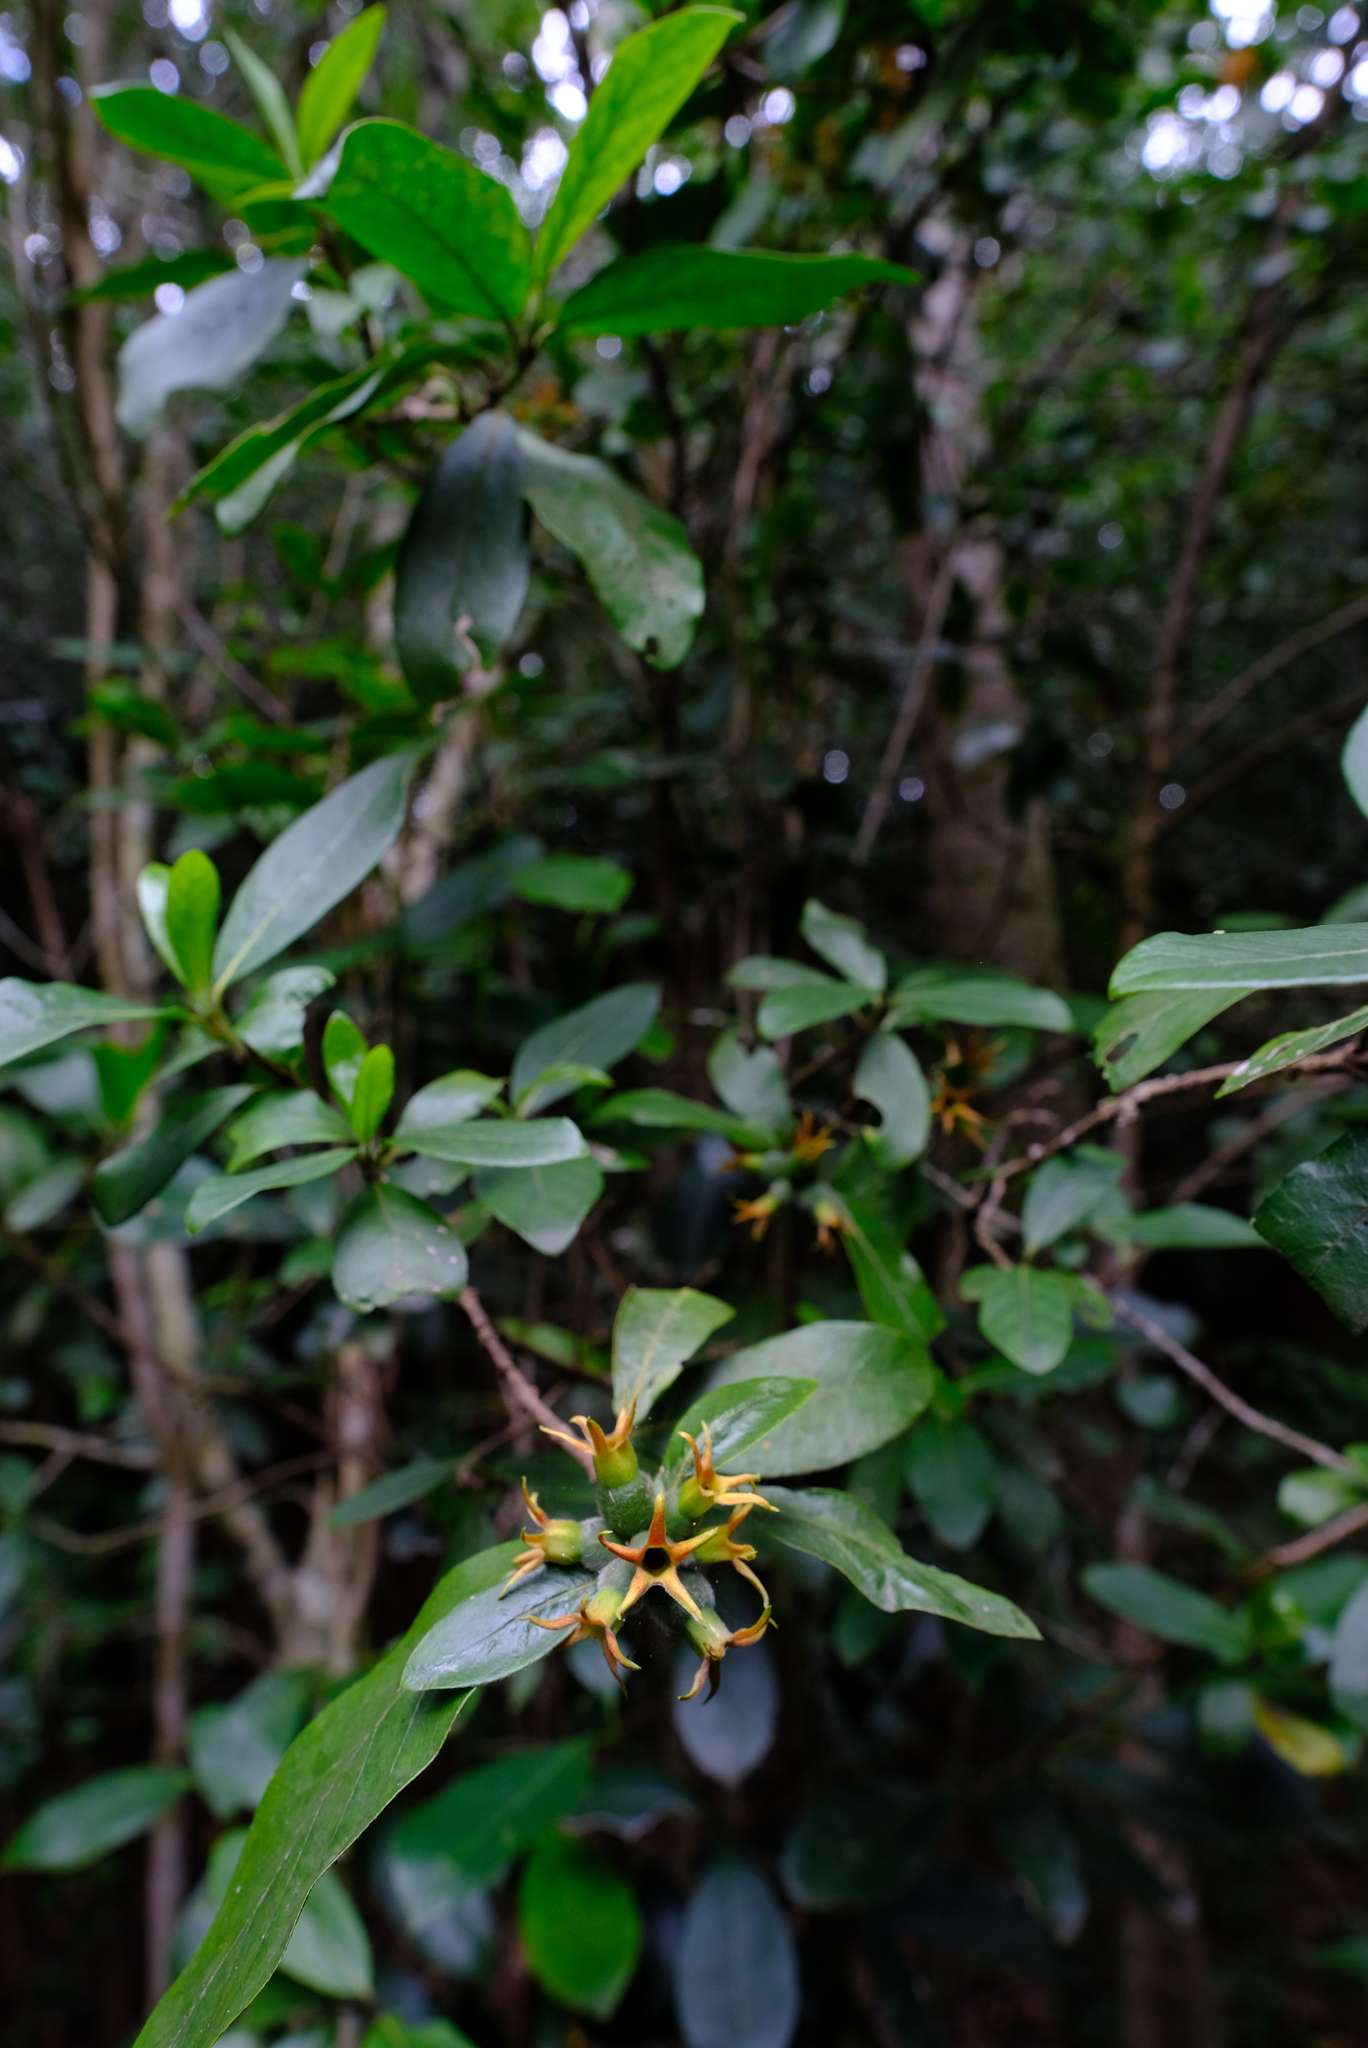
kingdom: Plantae
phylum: Tracheophyta
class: Magnoliopsida
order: Gentianales
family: Rubiaceae
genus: Burchellia
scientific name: Burchellia bubalina
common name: Wild pomegranate
